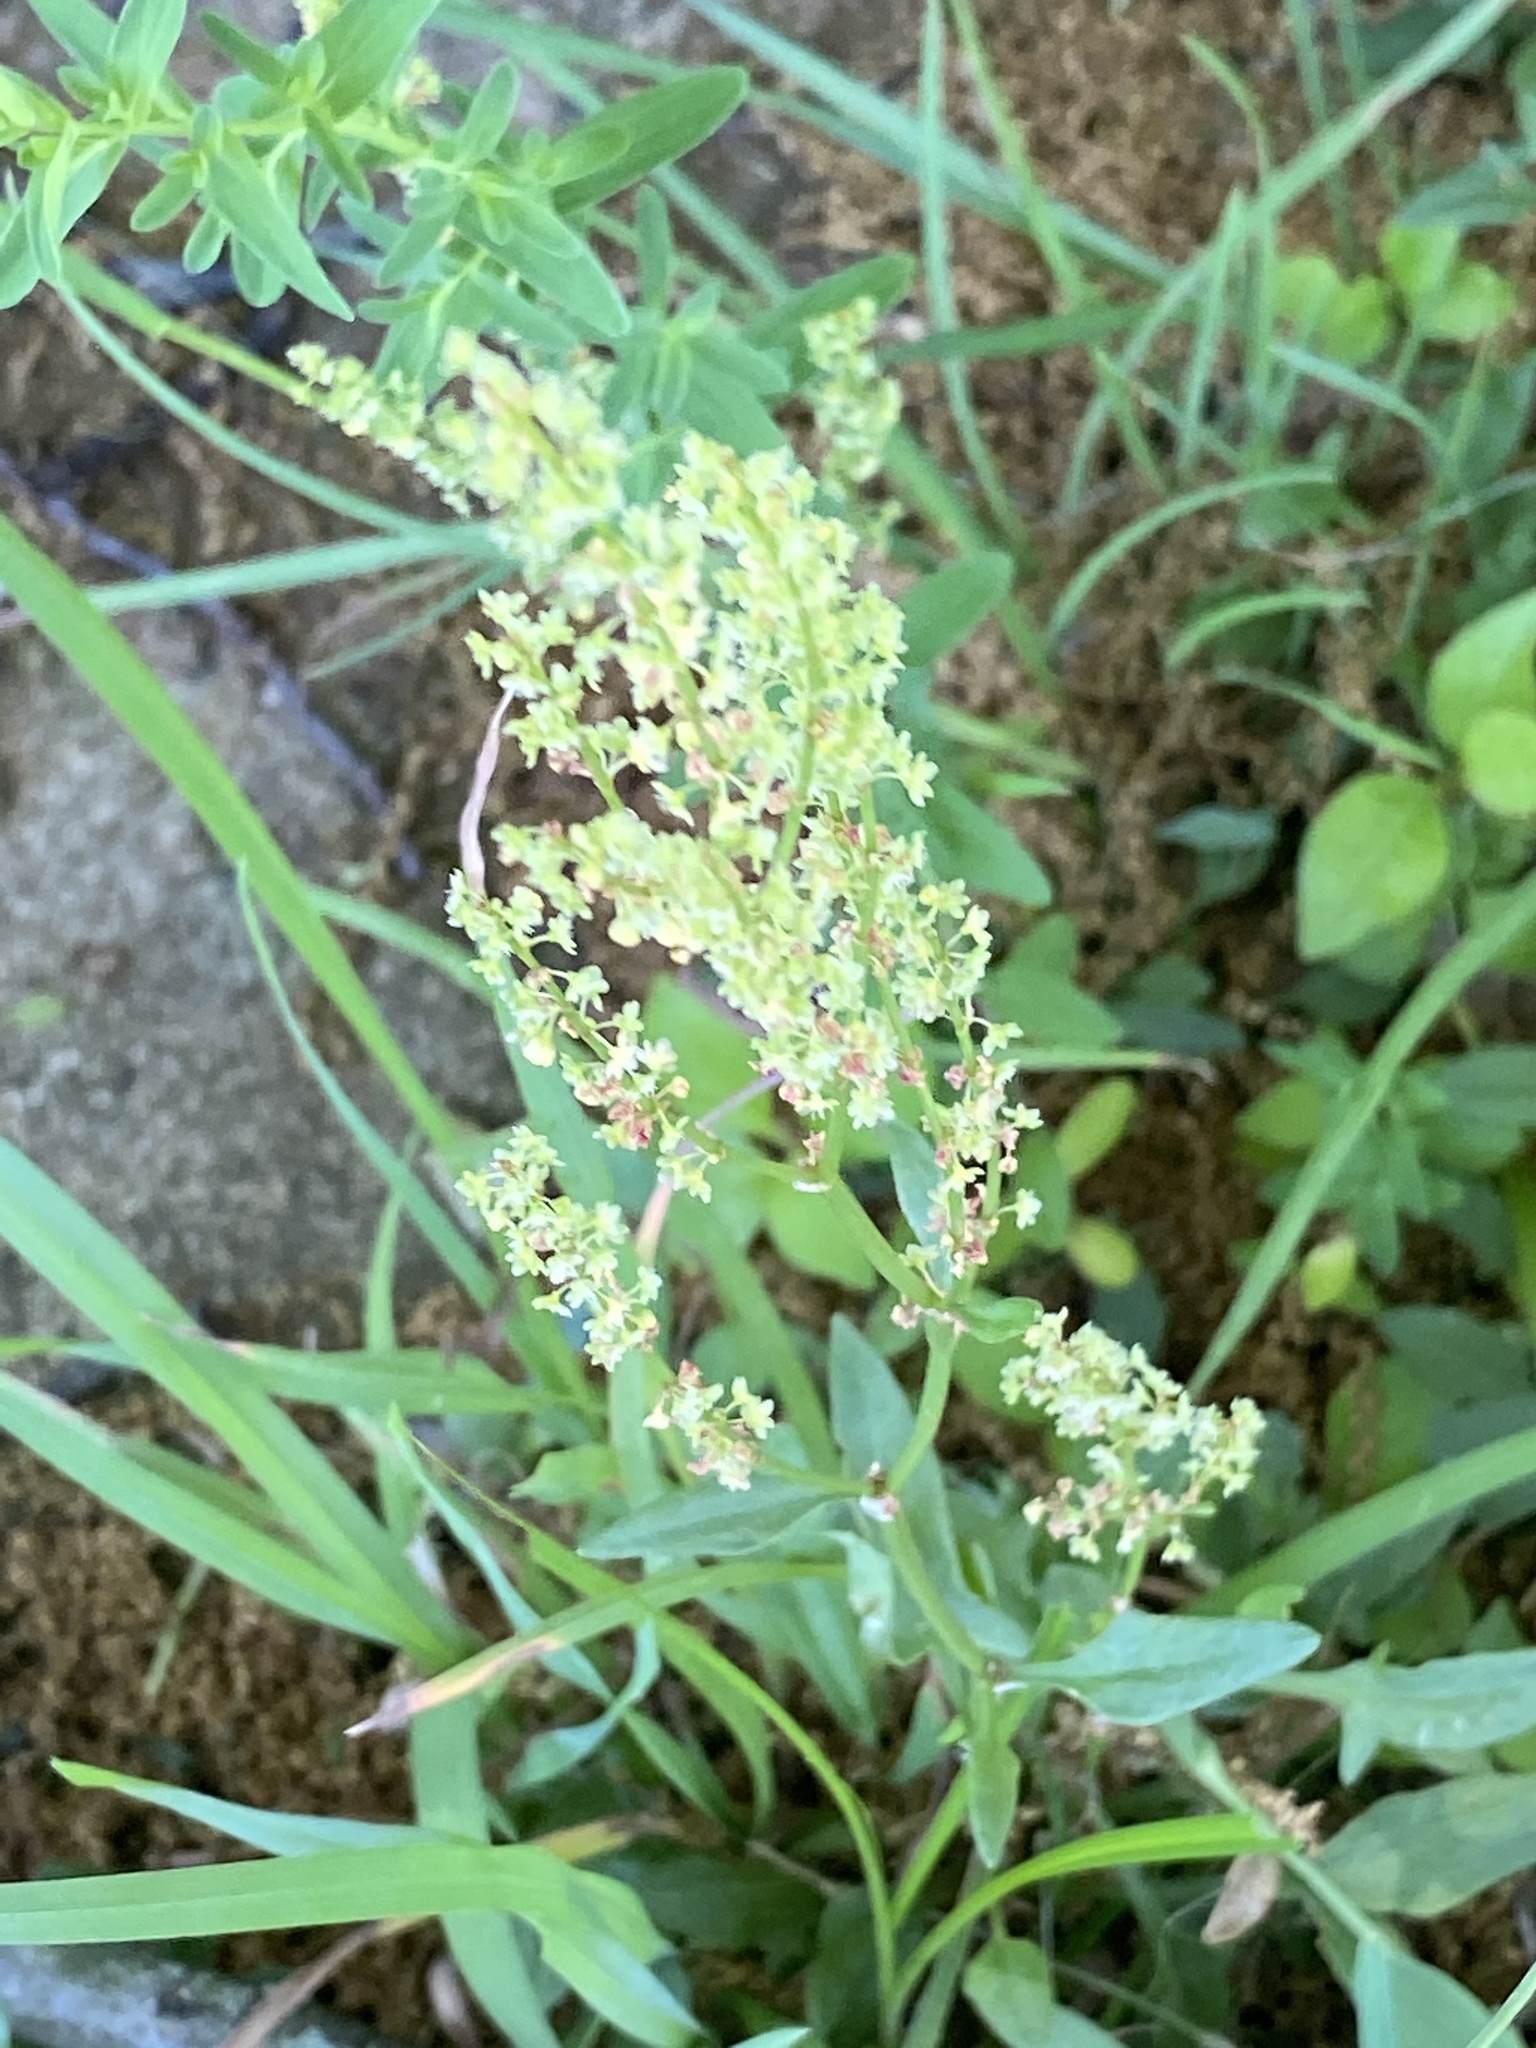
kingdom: Plantae
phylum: Tracheophyta
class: Magnoliopsida
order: Caryophyllales
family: Polygonaceae
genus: Rumex
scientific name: Rumex acetosella
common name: Common sheep sorrel
